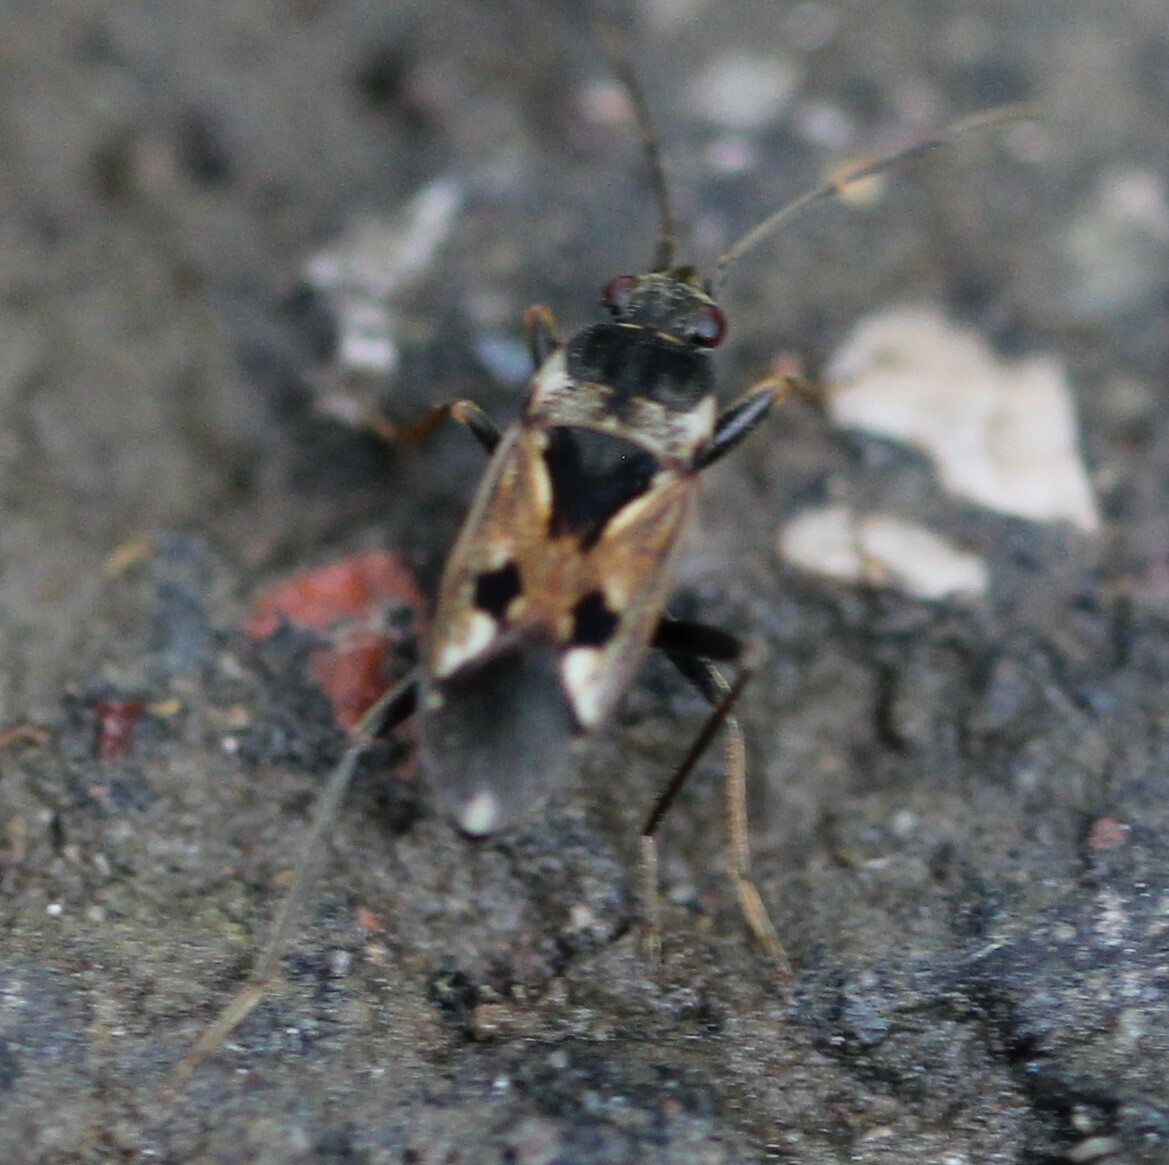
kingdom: Animalia
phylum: Arthropoda
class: Insecta
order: Hemiptera
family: Rhyparochromidae
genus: Rhyparochromus
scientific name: Rhyparochromus vulgaris
